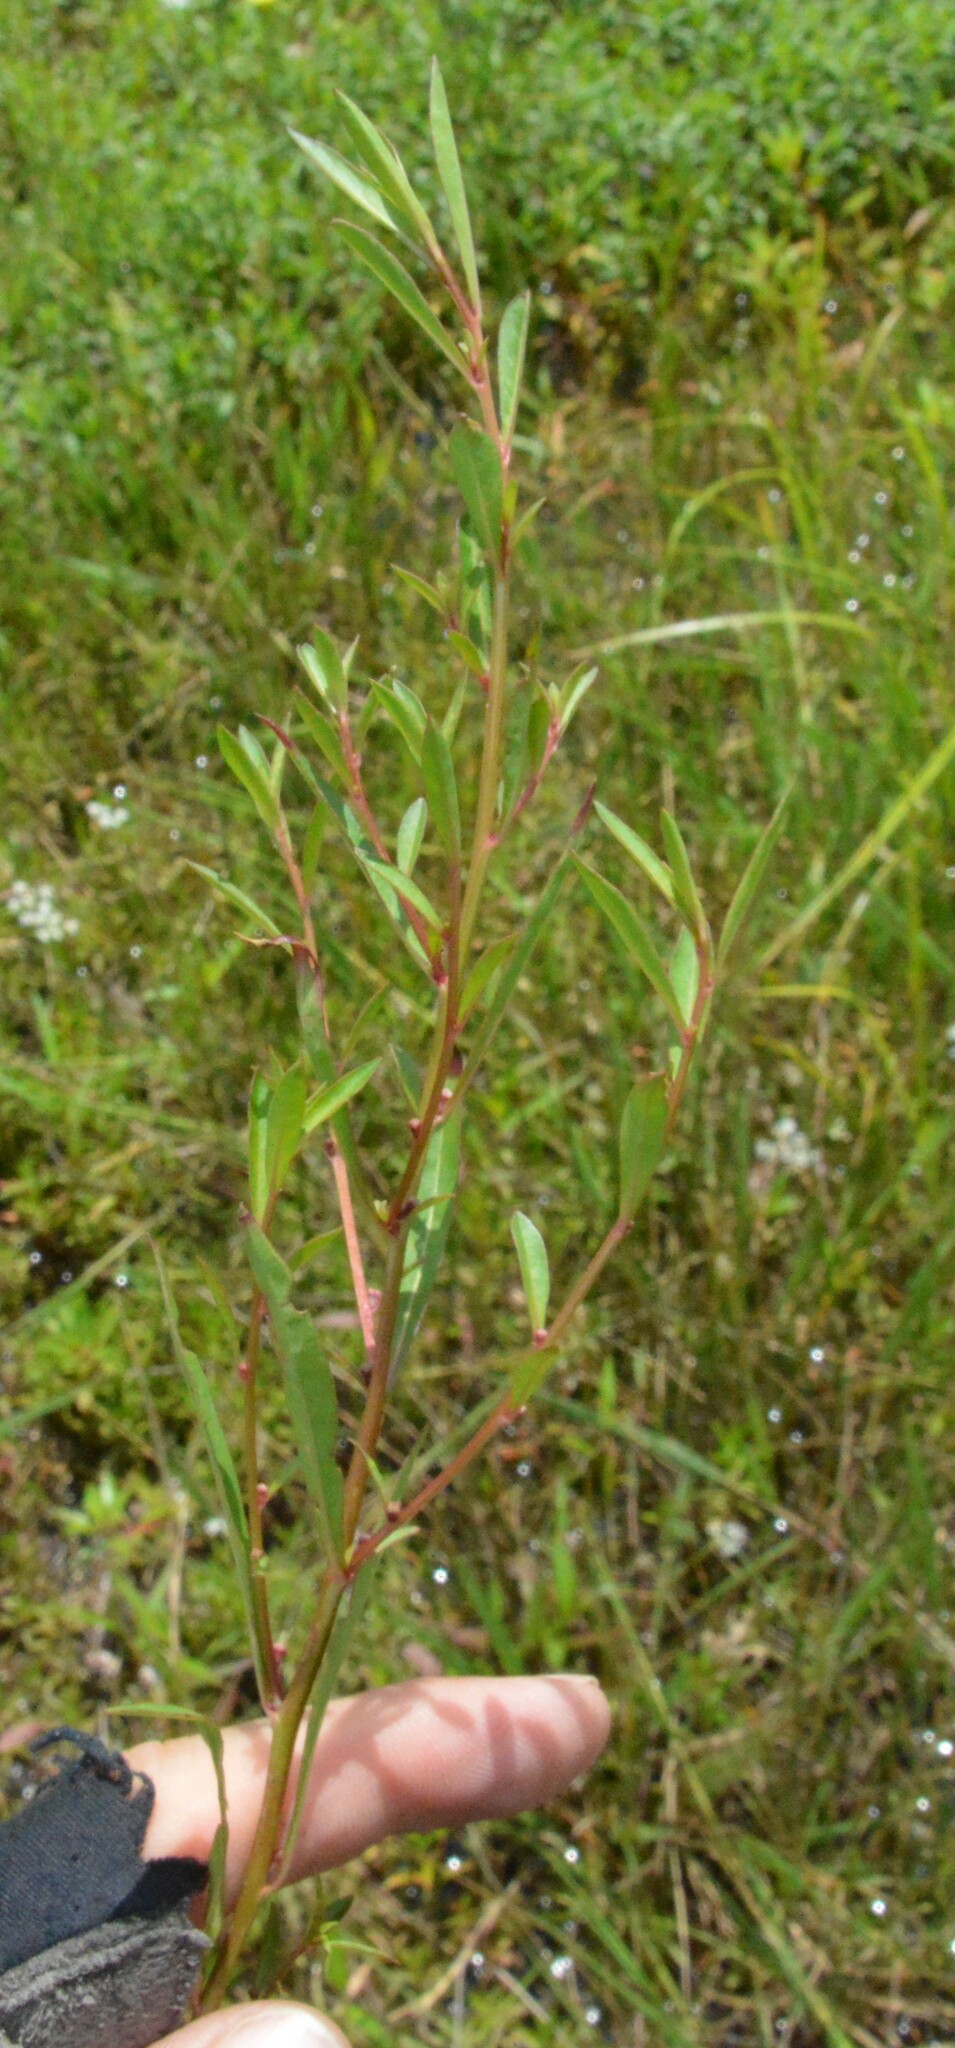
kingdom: Plantae
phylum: Tracheophyta
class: Magnoliopsida
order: Myrtales
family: Onagraceae
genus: Ludwigia
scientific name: Ludwigia glandulosa
